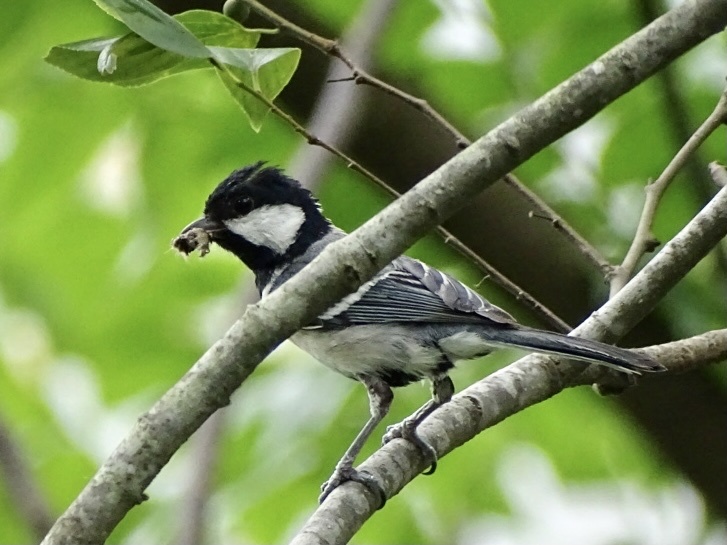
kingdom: Animalia
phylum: Chordata
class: Aves
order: Passeriformes
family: Paridae
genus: Parus
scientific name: Parus minor
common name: Japanese tit
